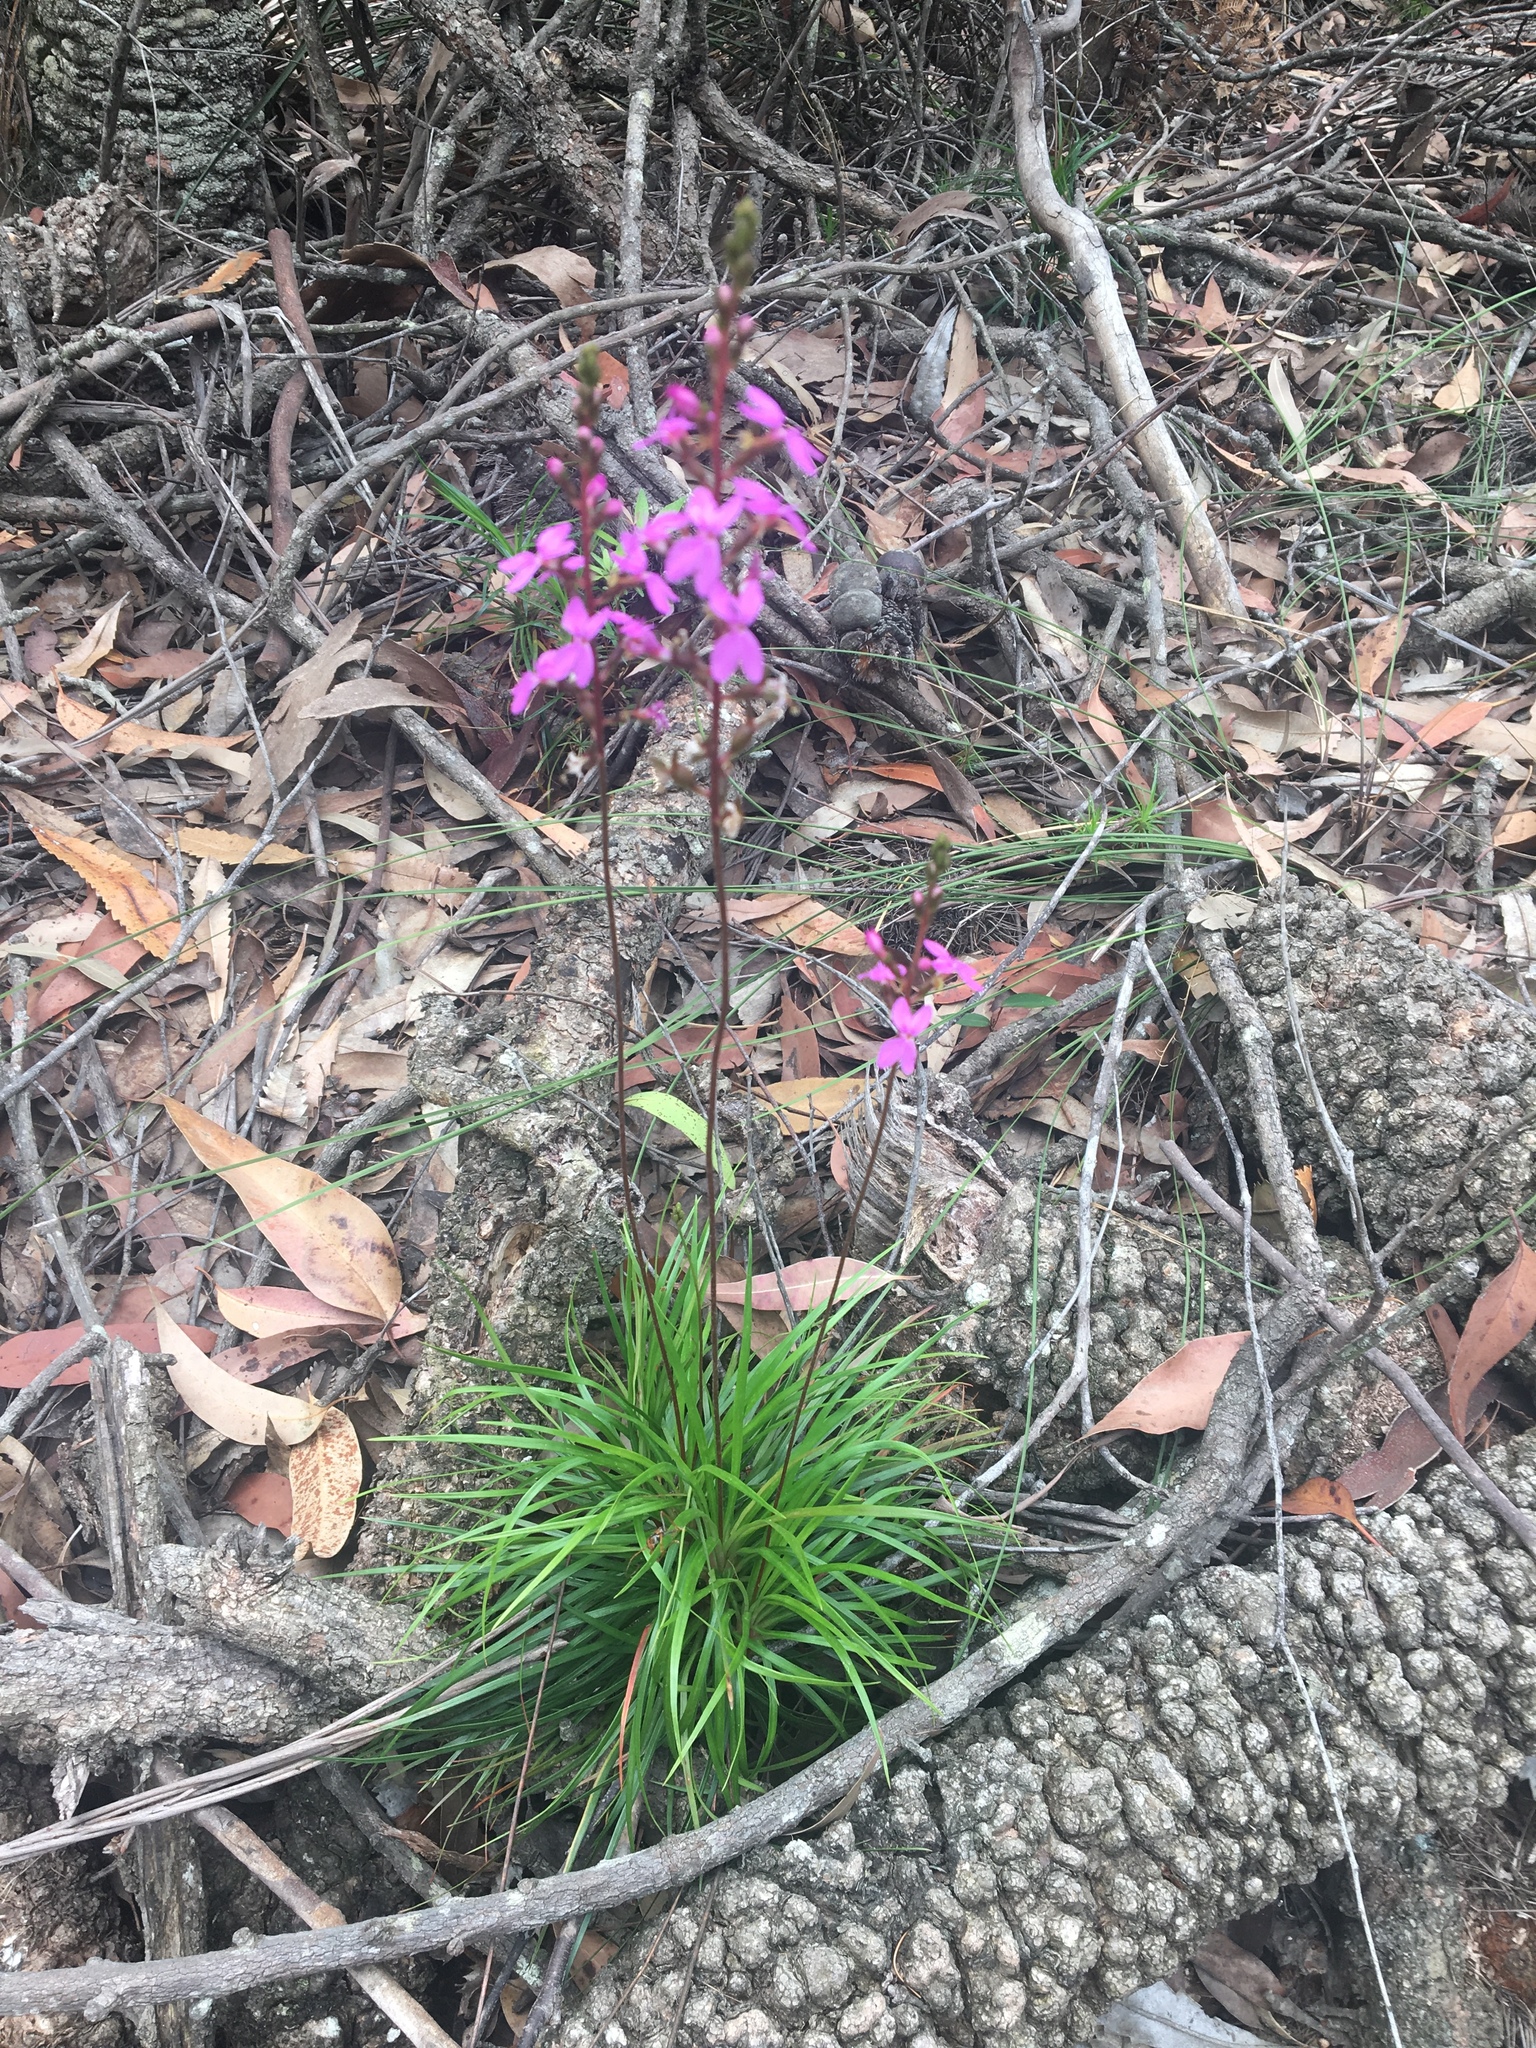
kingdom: Plantae
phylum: Tracheophyta
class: Magnoliopsida
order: Asterales
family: Stylidiaceae
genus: Stylidium
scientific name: Stylidium graminifolium
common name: Grass triggerplant
